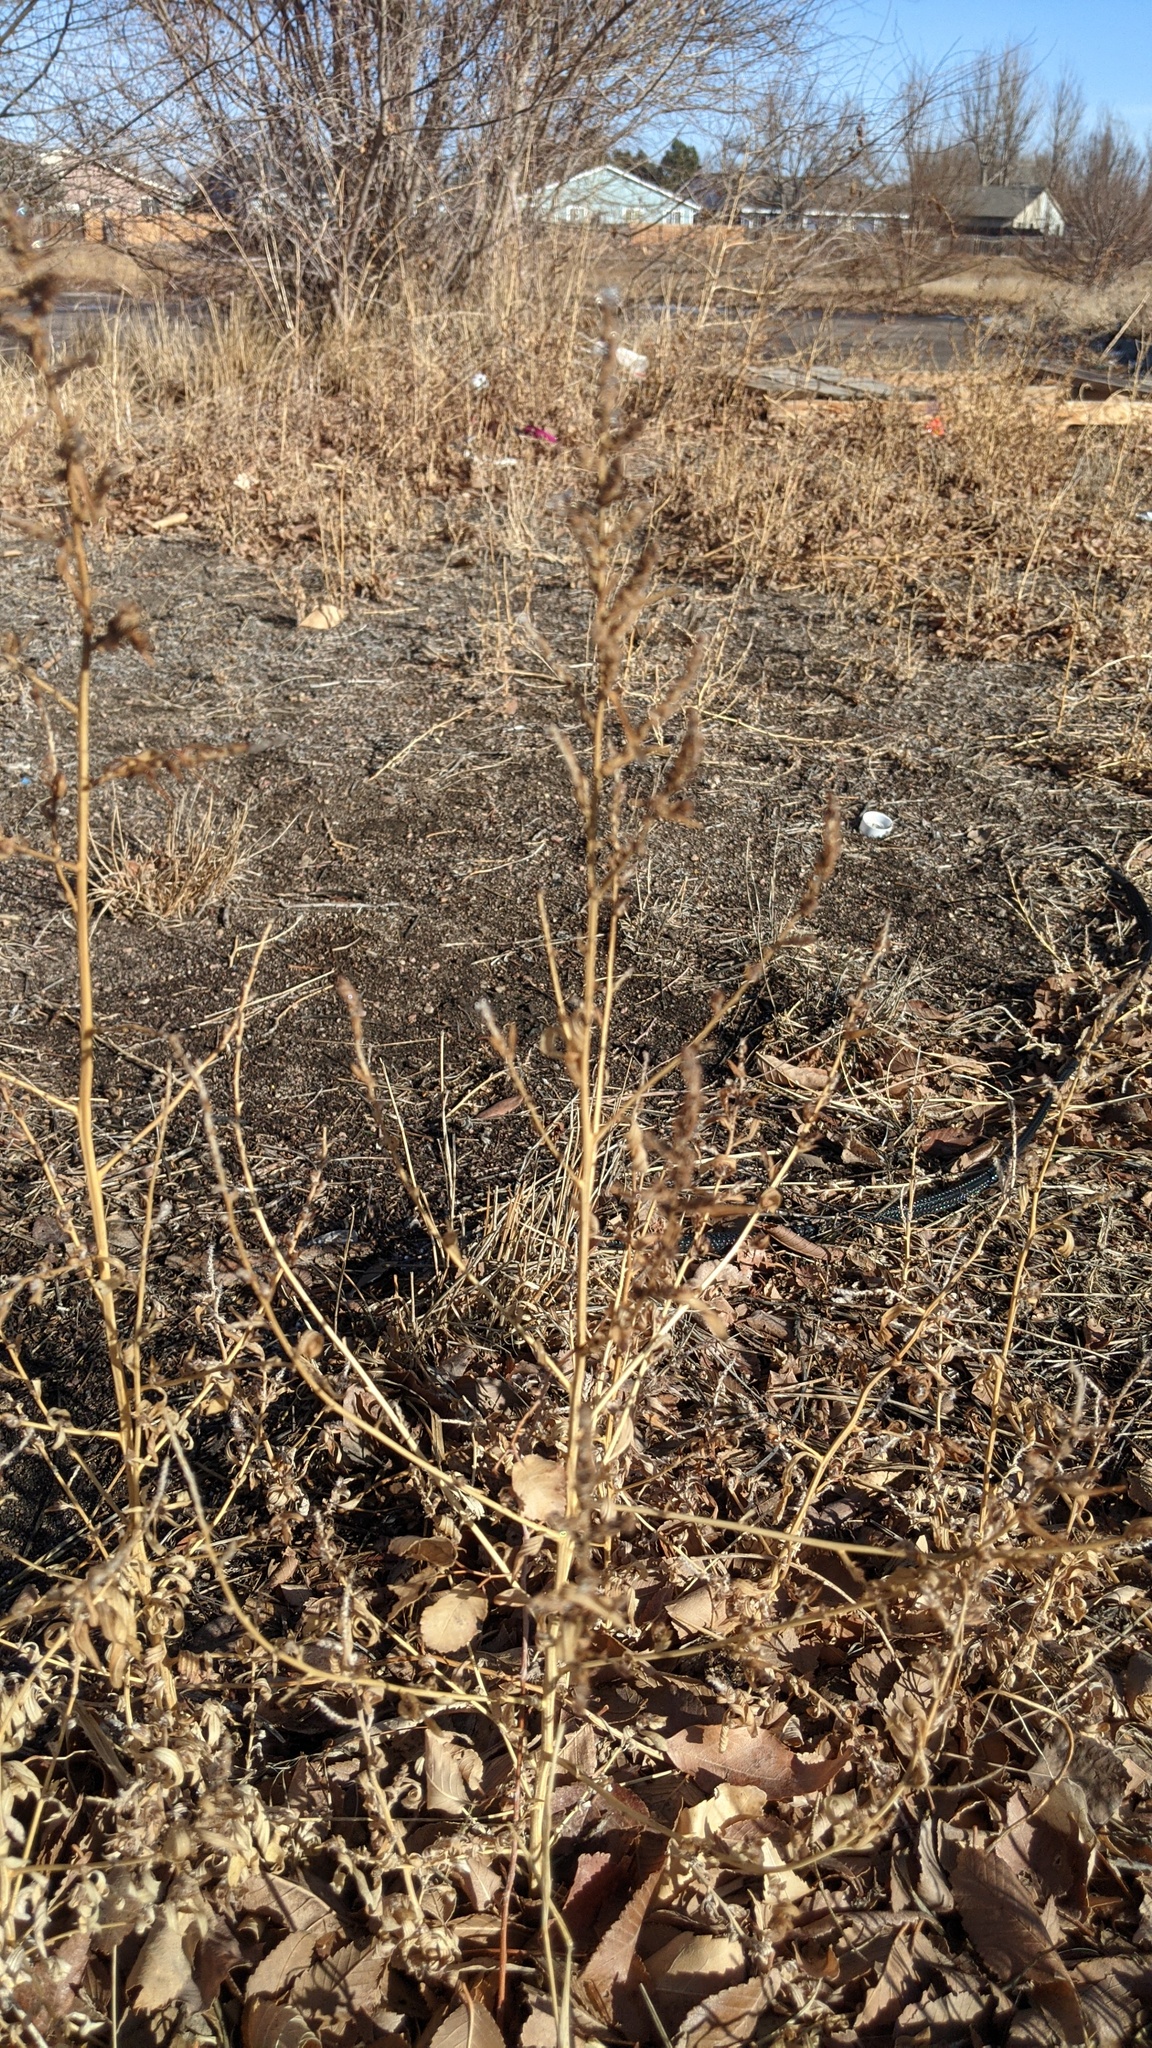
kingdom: Plantae
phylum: Tracheophyta
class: Magnoliopsida
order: Caryophyllales
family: Amaranthaceae
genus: Bassia
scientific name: Bassia scoparia
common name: Belvedere
